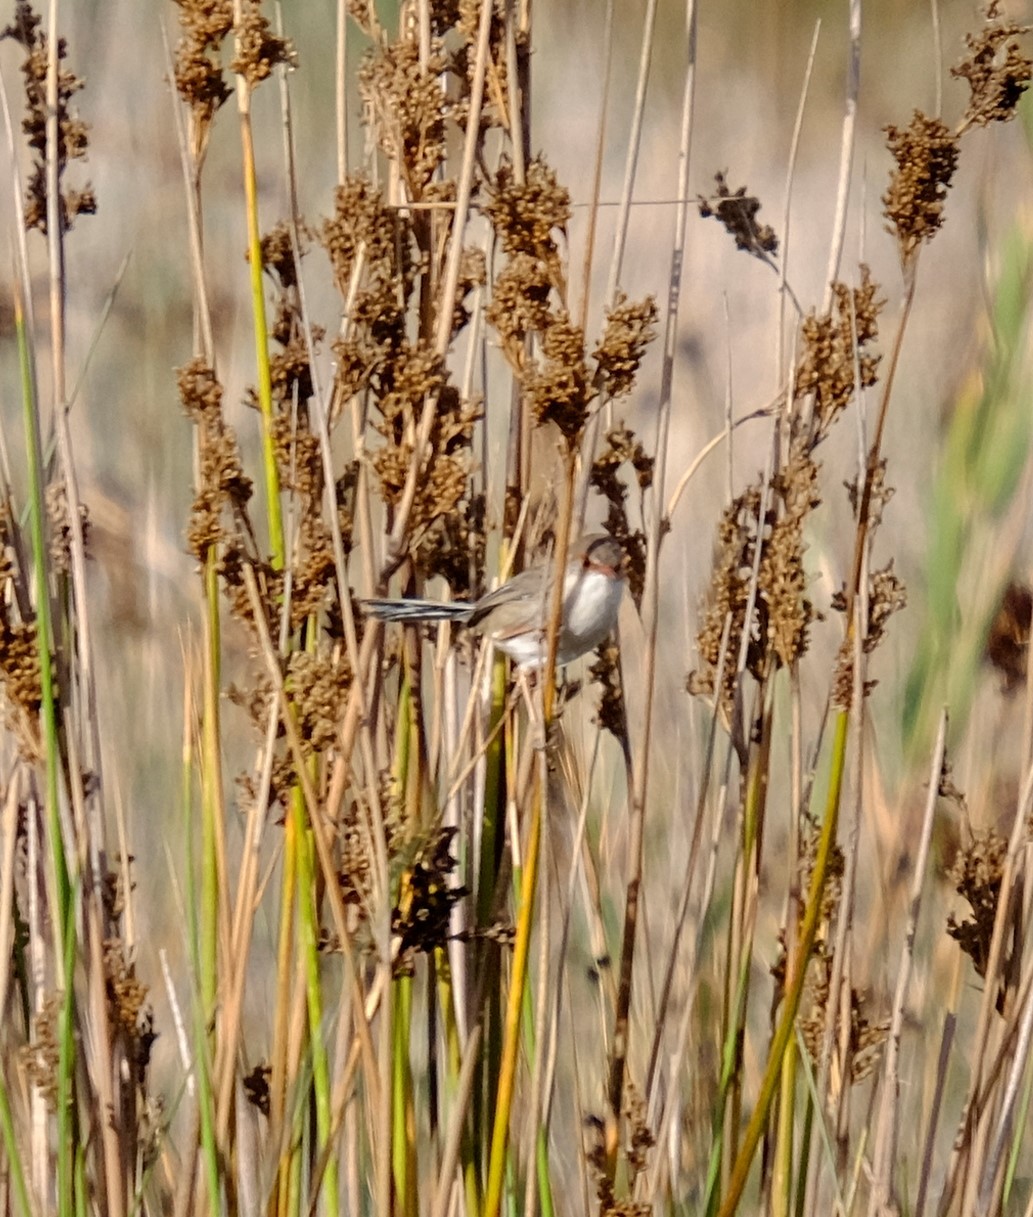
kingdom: Animalia
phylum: Chordata
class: Aves
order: Passeriformes
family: Maluridae
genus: Malurus
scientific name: Malurus cyaneus
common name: Superb fairywren
